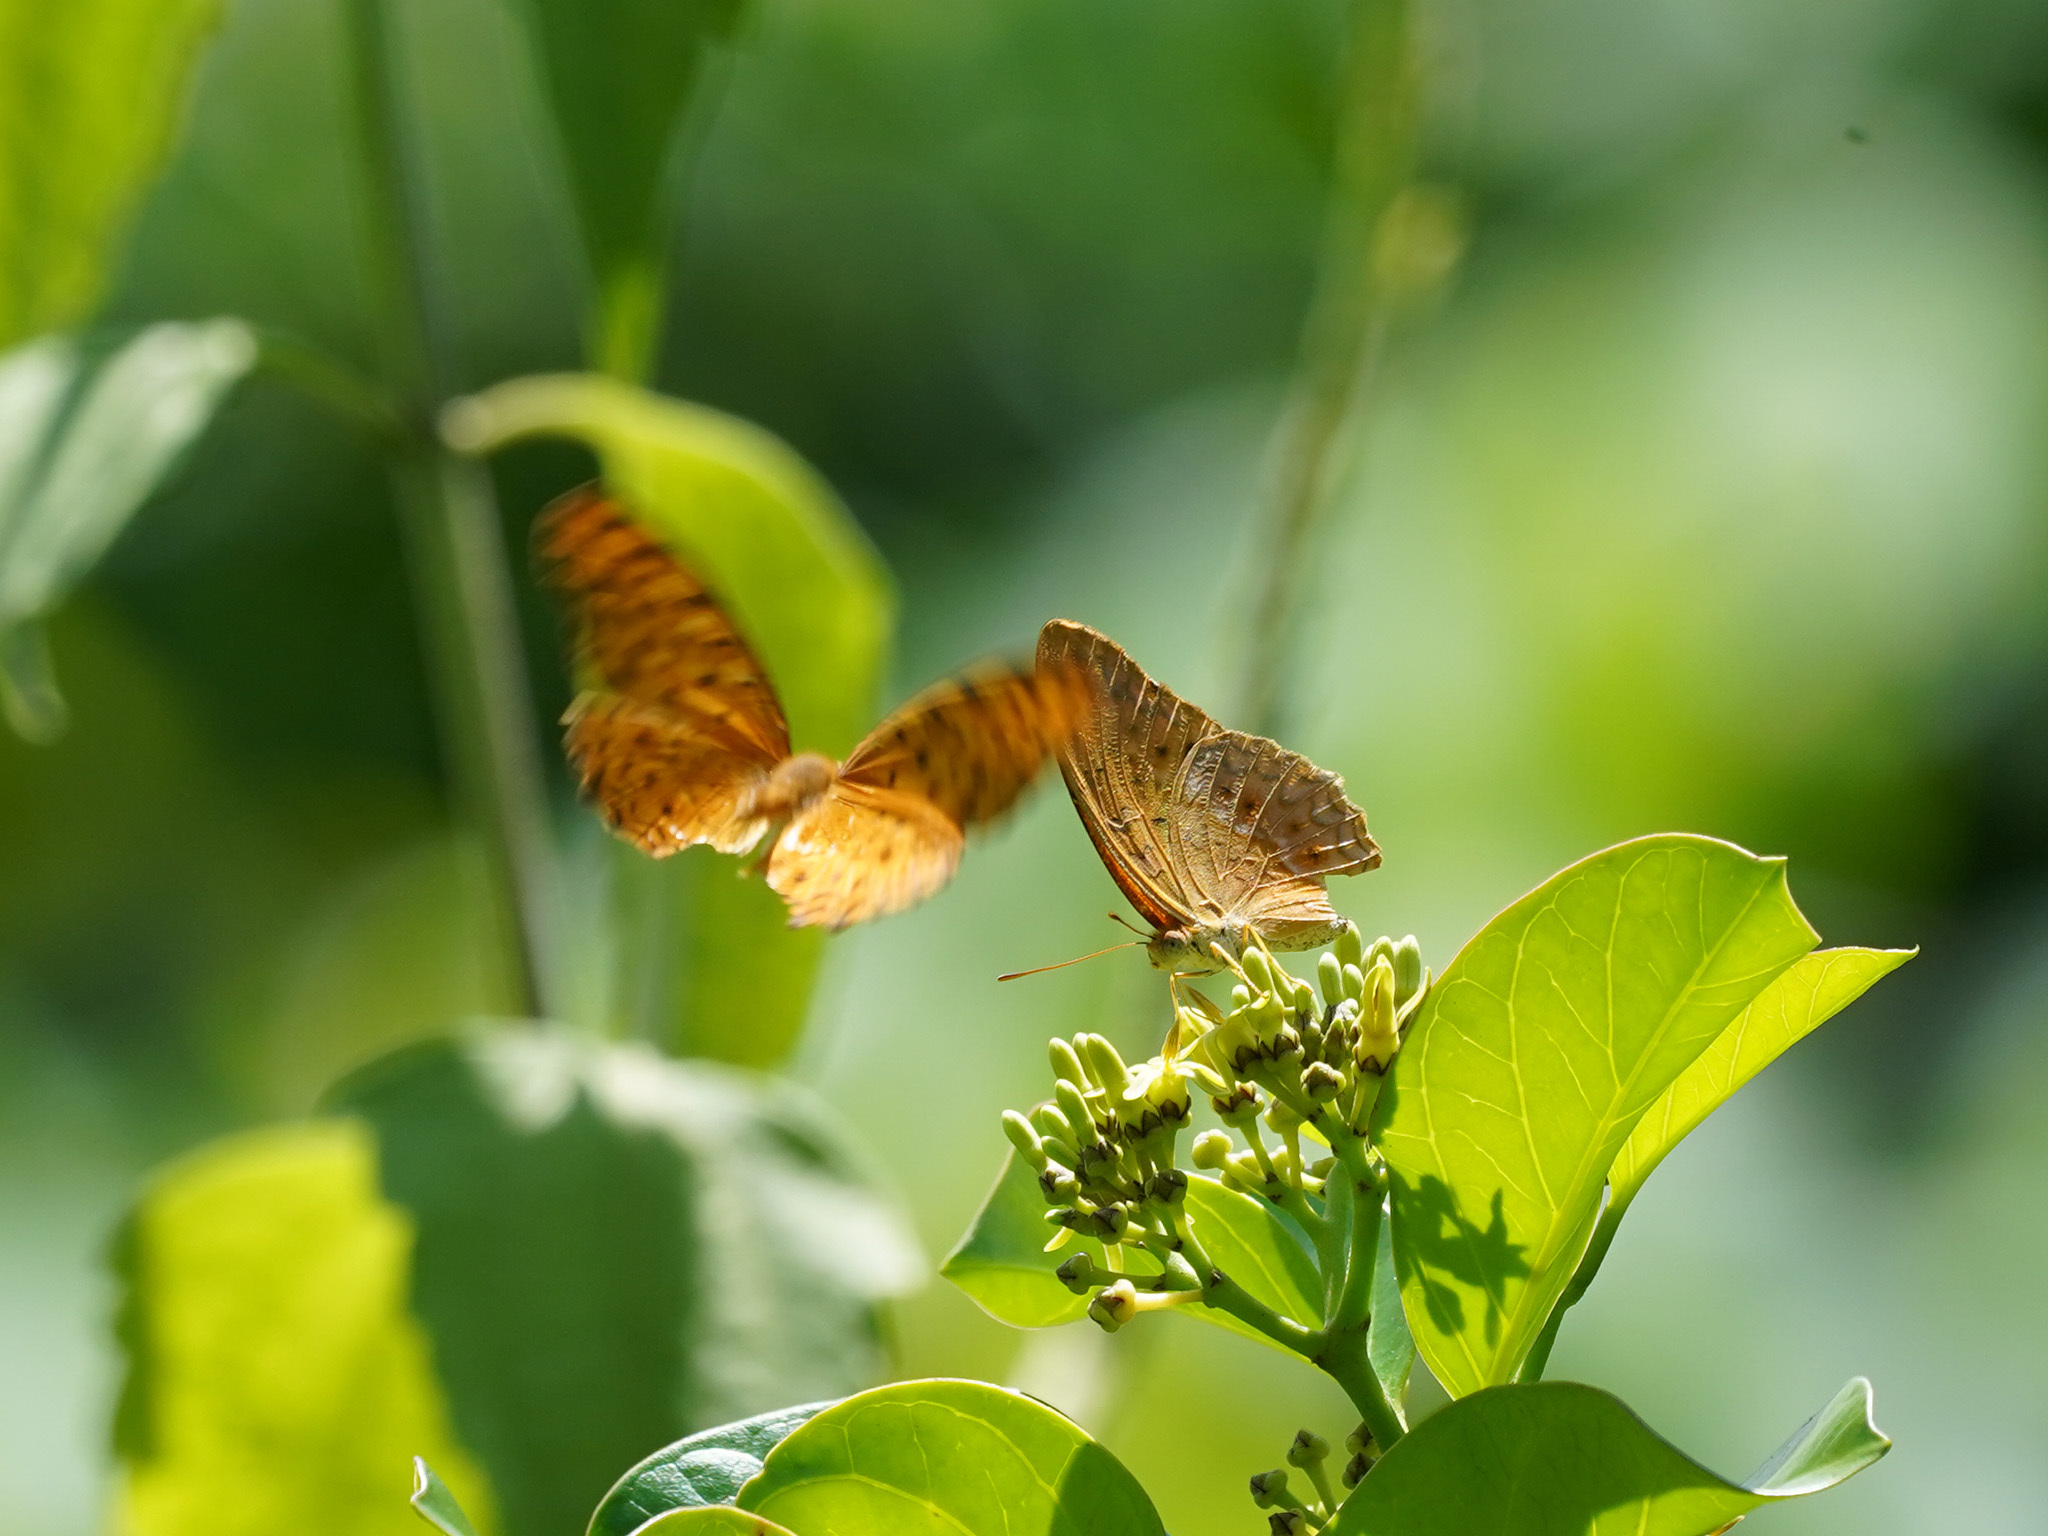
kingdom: Animalia
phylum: Arthropoda
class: Insecta
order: Lepidoptera
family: Nymphalidae
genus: Phalanta
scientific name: Phalanta phalantha
